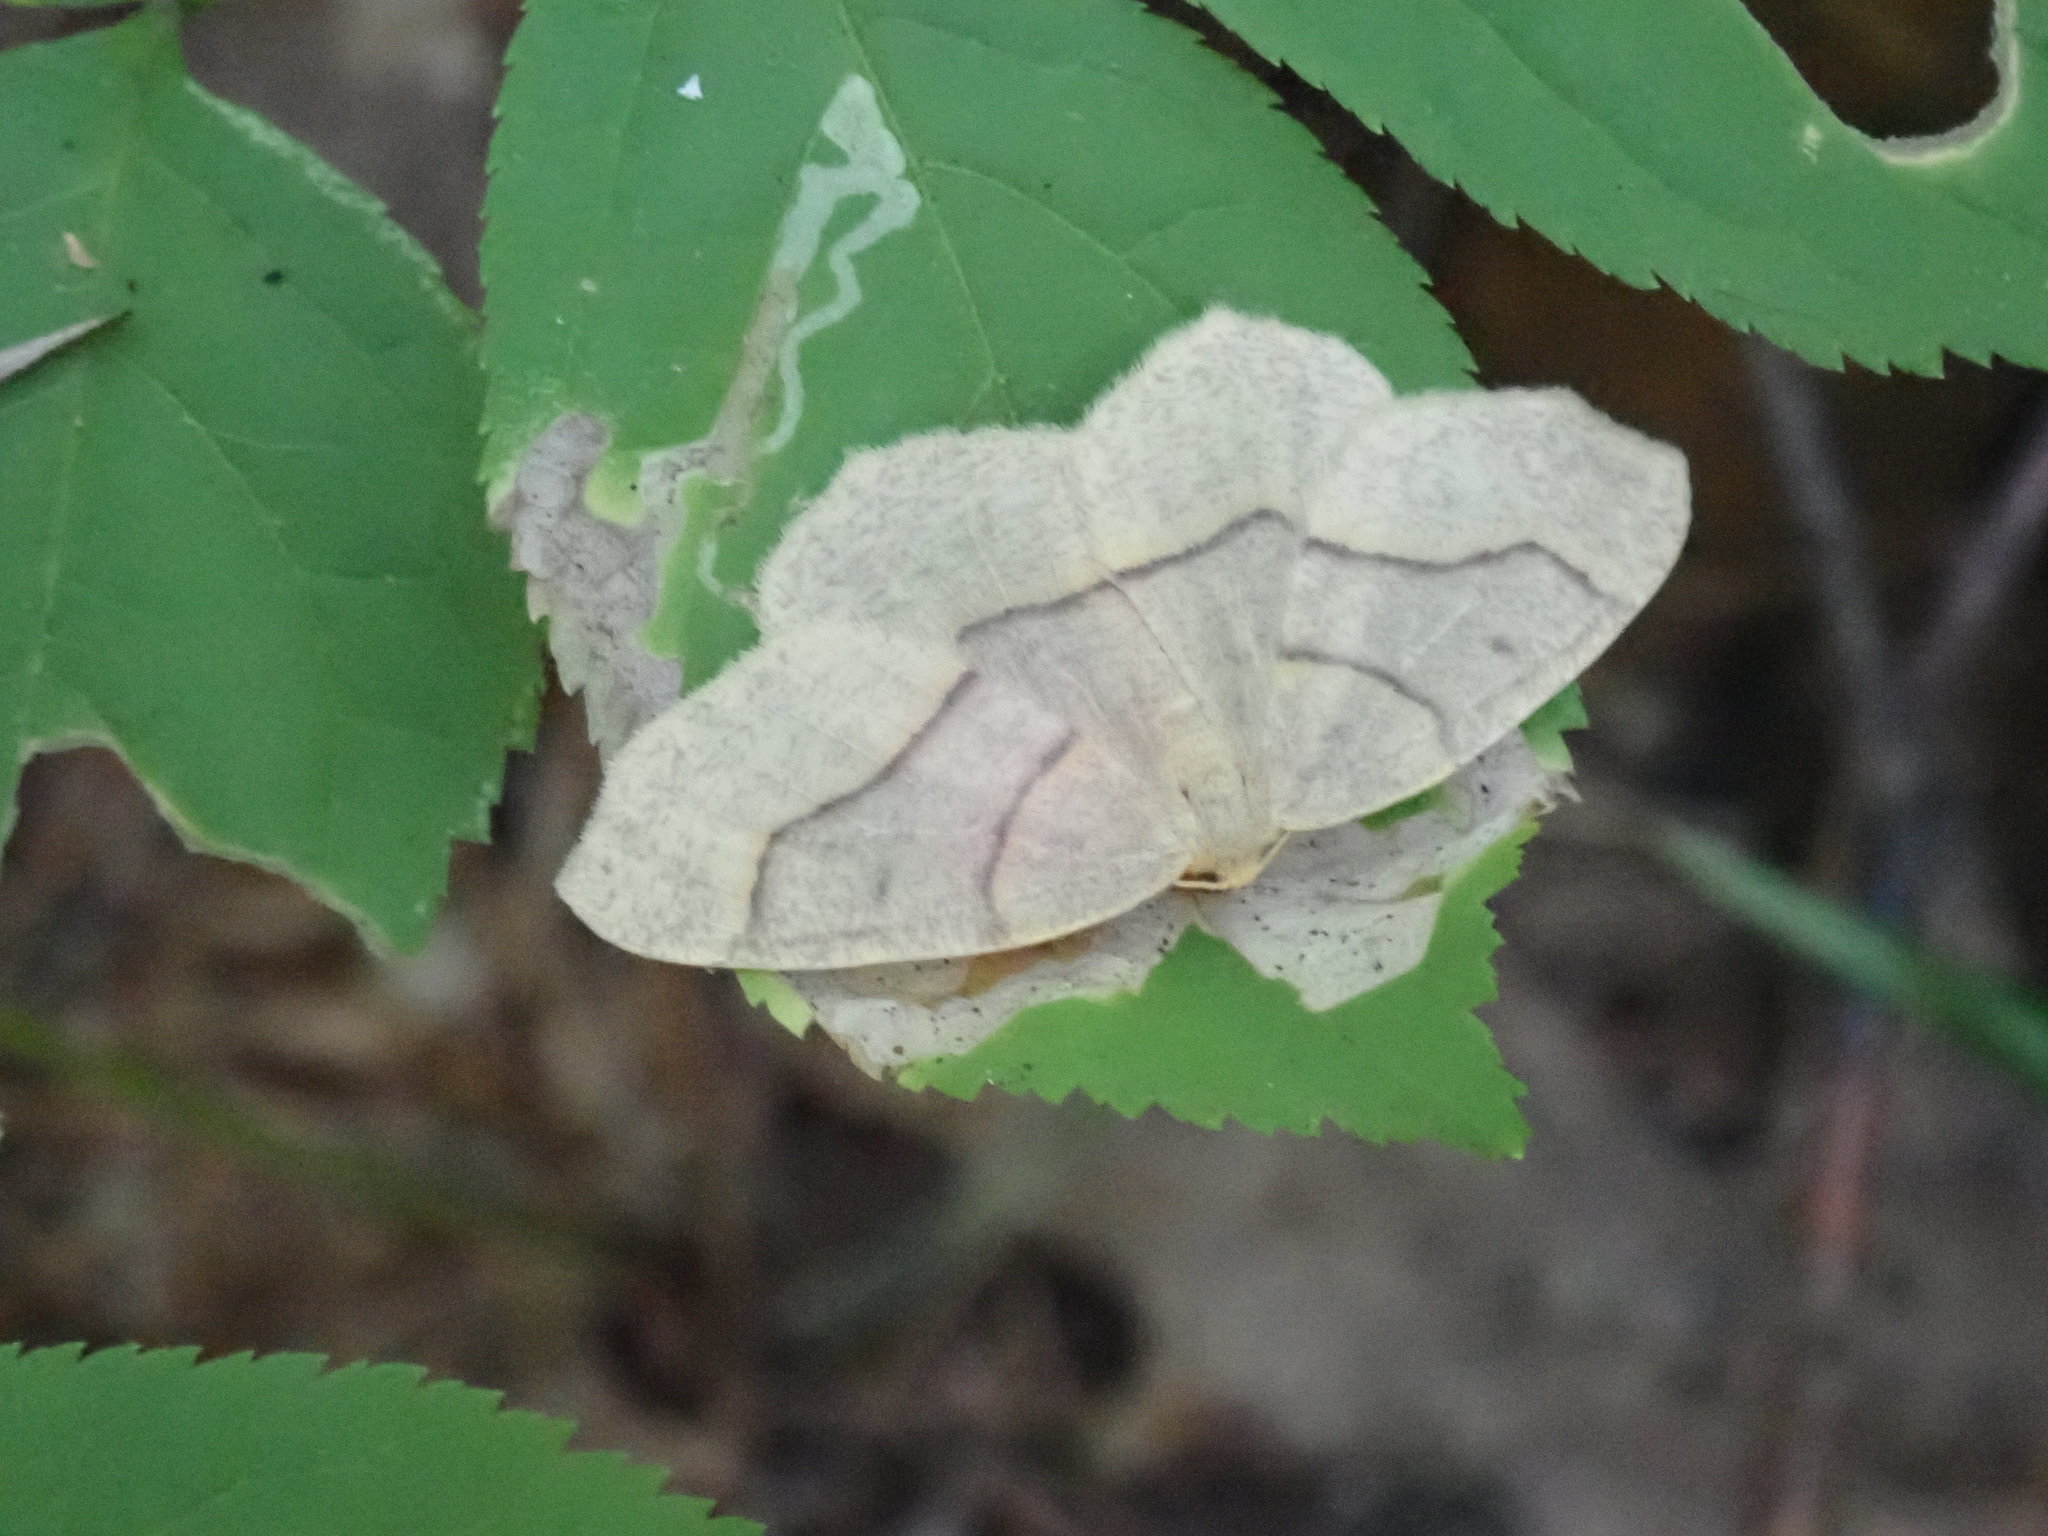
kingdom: Animalia
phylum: Arthropoda
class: Insecta
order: Lepidoptera
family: Geometridae
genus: Lambdina
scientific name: Lambdina fiscellaria
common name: Hemlock looper
